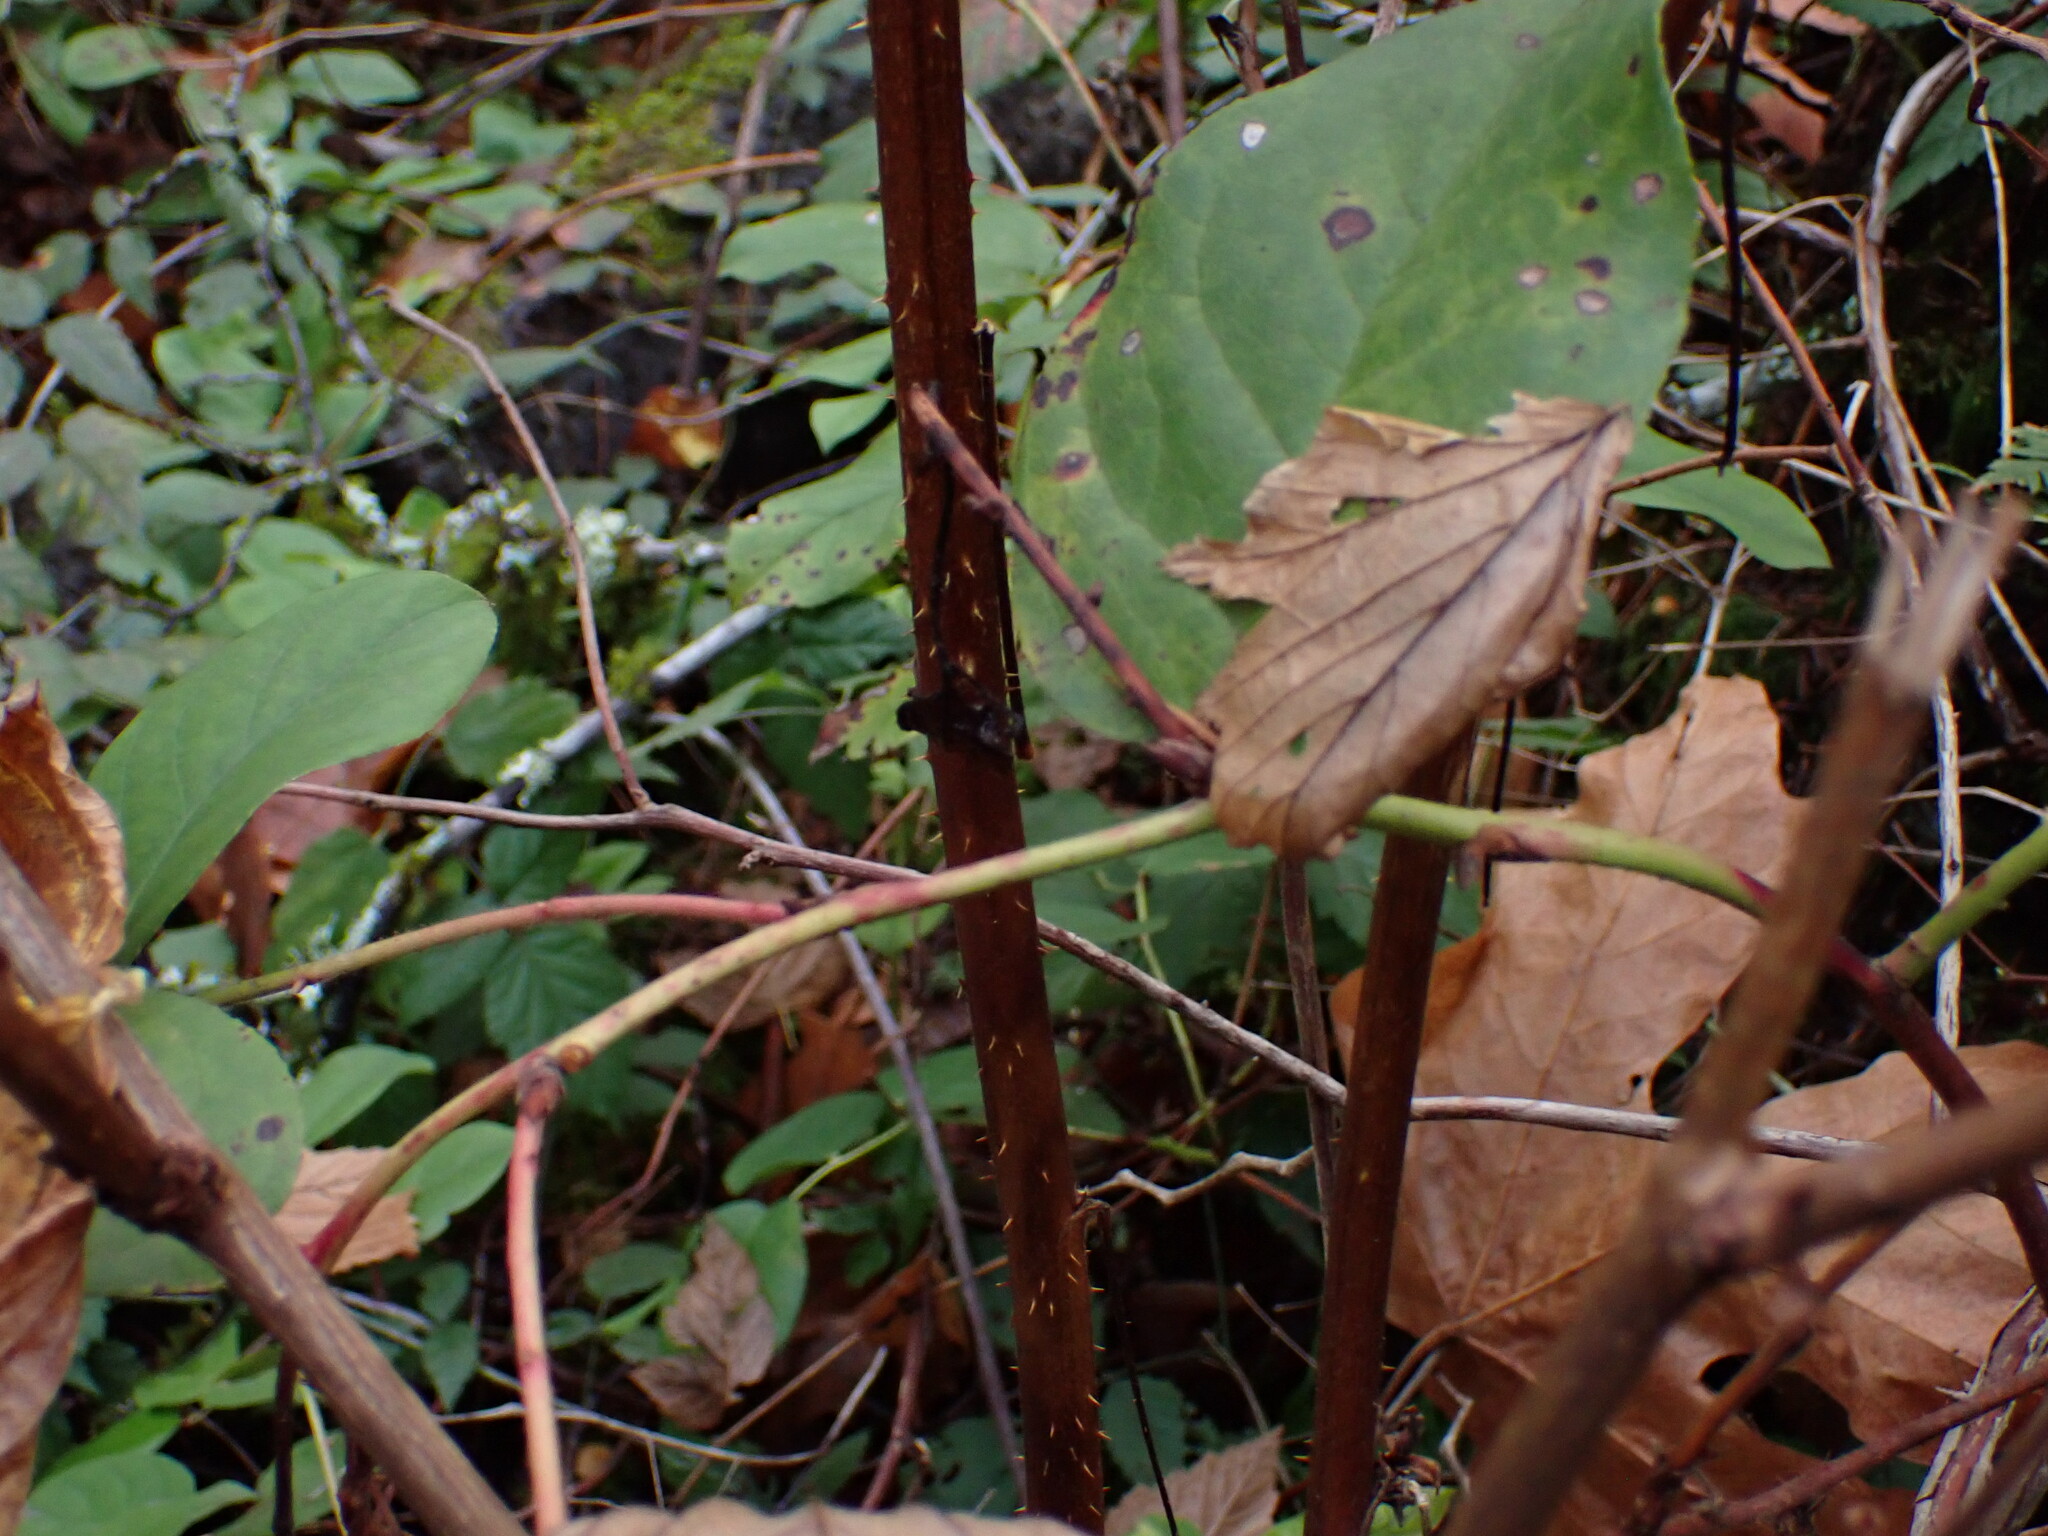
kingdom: Plantae
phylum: Tracheophyta
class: Magnoliopsida
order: Rosales
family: Rosaceae
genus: Rubus
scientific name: Rubus spectabilis
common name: Salmonberry
